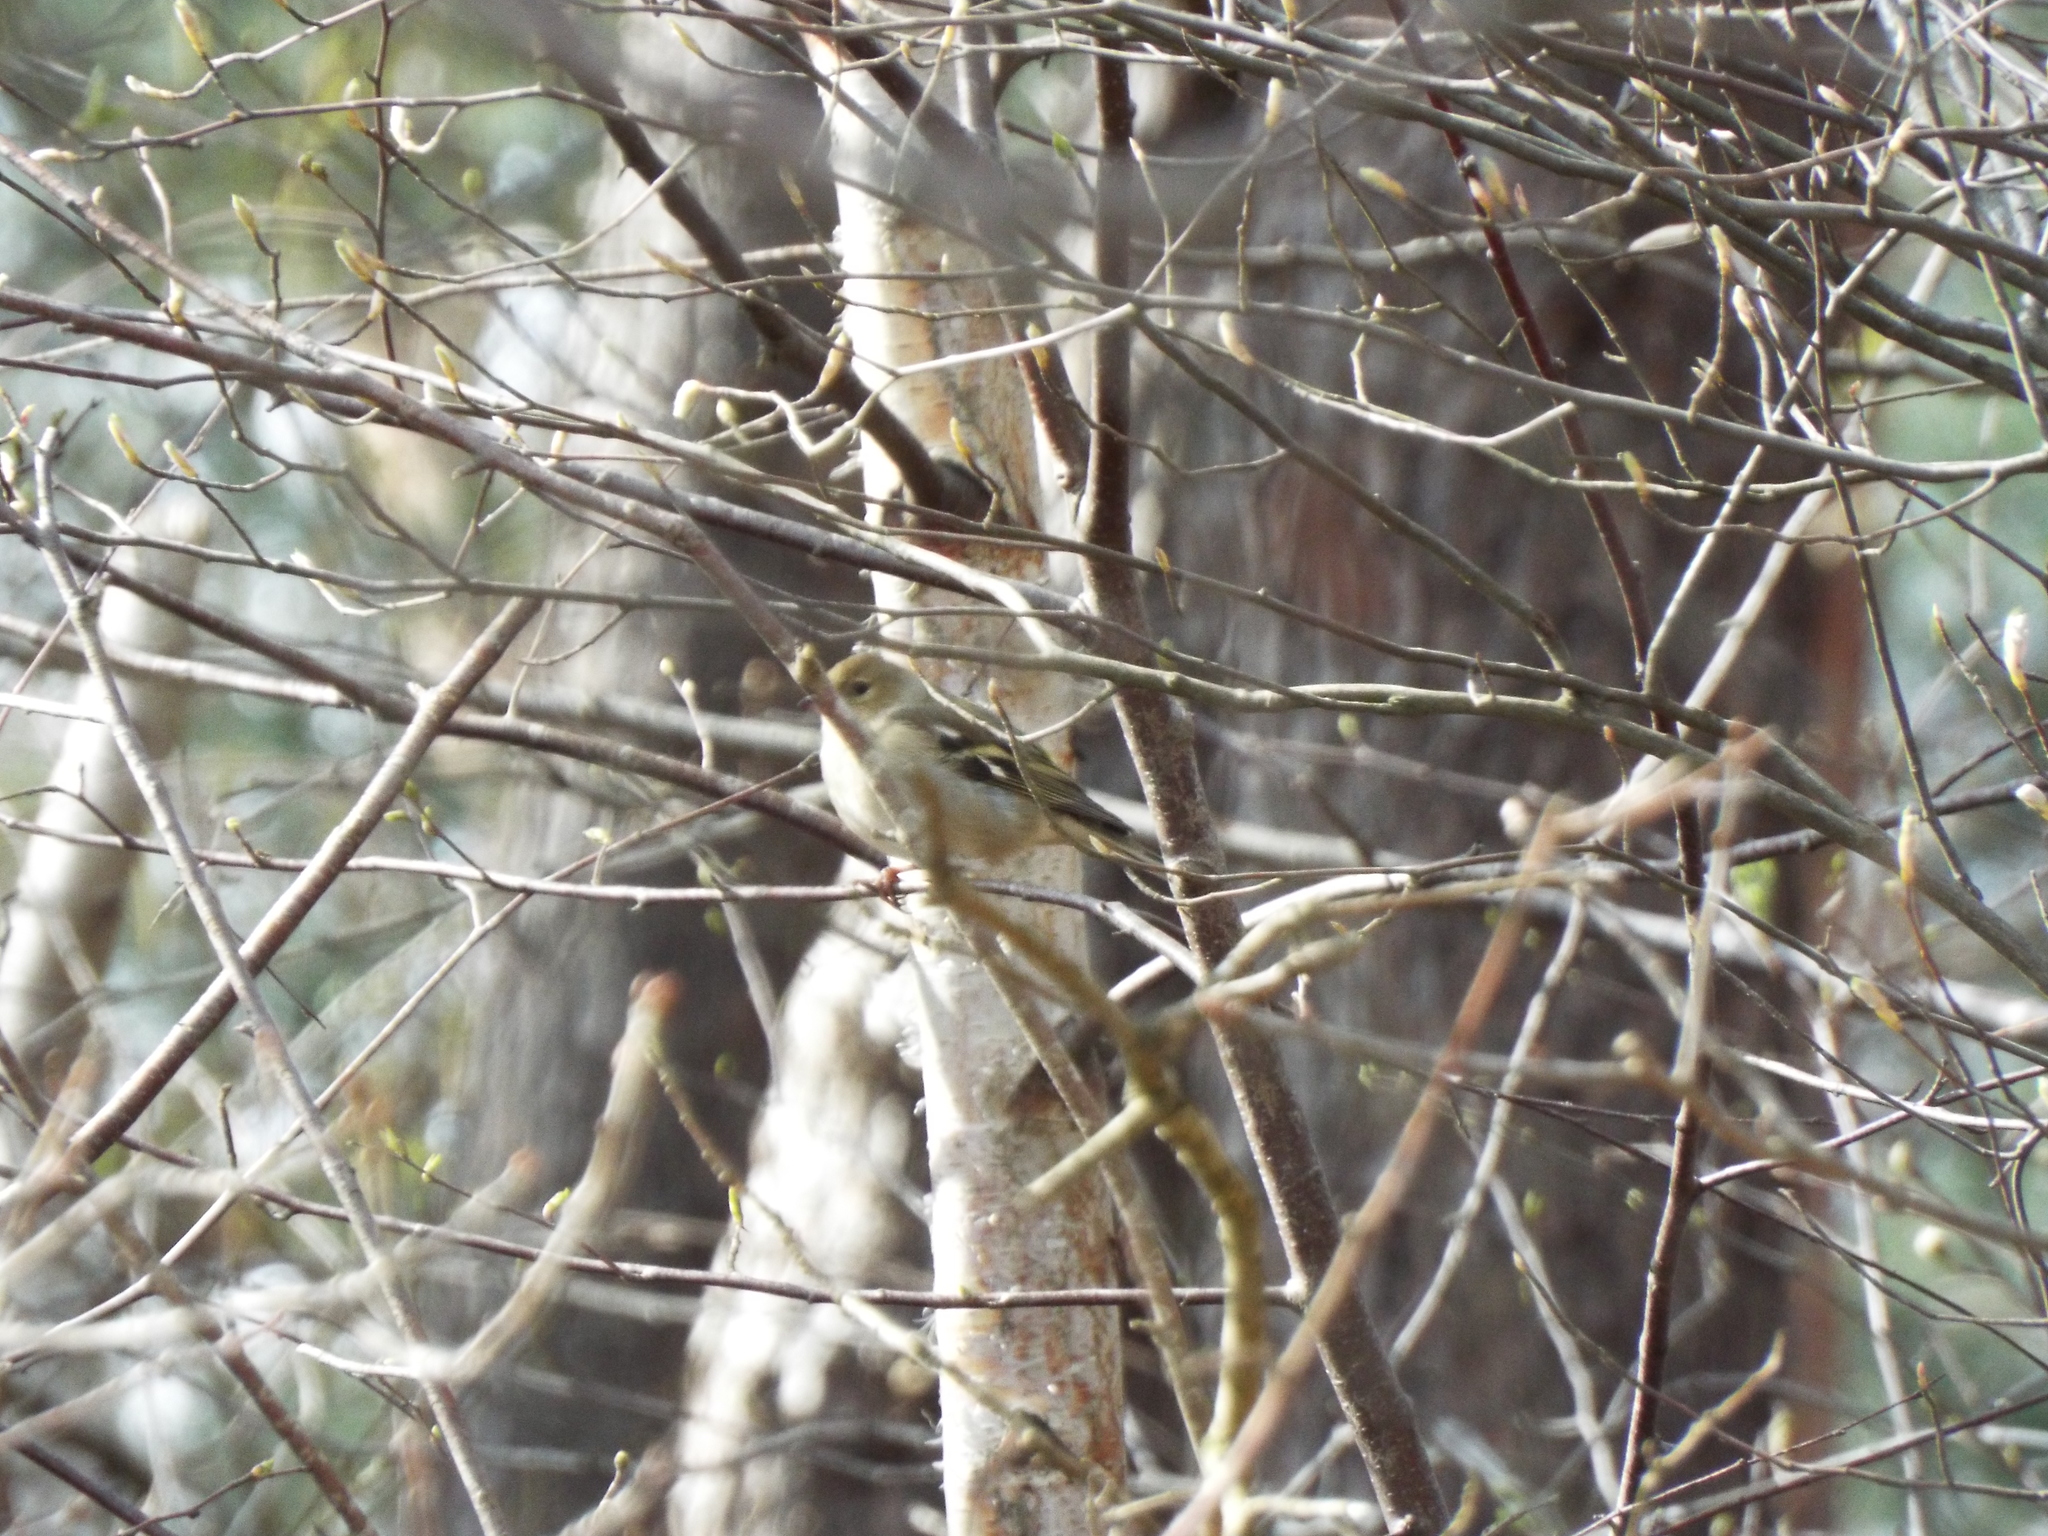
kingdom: Animalia
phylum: Chordata
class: Aves
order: Passeriformes
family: Fringillidae
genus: Fringilla
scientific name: Fringilla coelebs
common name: Common chaffinch
